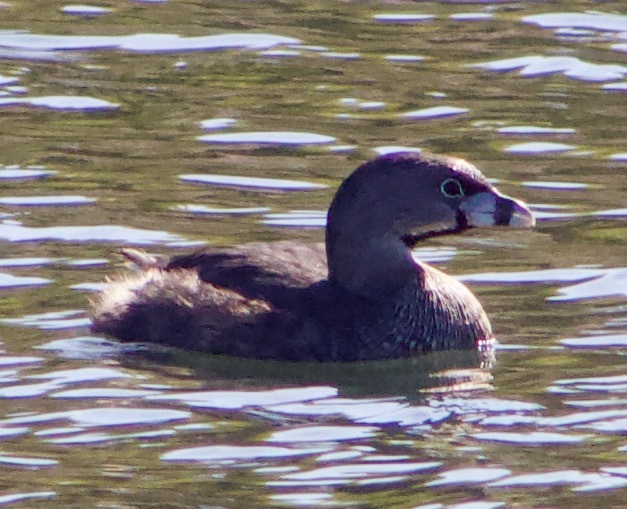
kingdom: Animalia
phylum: Chordata
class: Aves
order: Podicipediformes
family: Podicipedidae
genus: Podilymbus
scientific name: Podilymbus podiceps
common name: Pied-billed grebe
